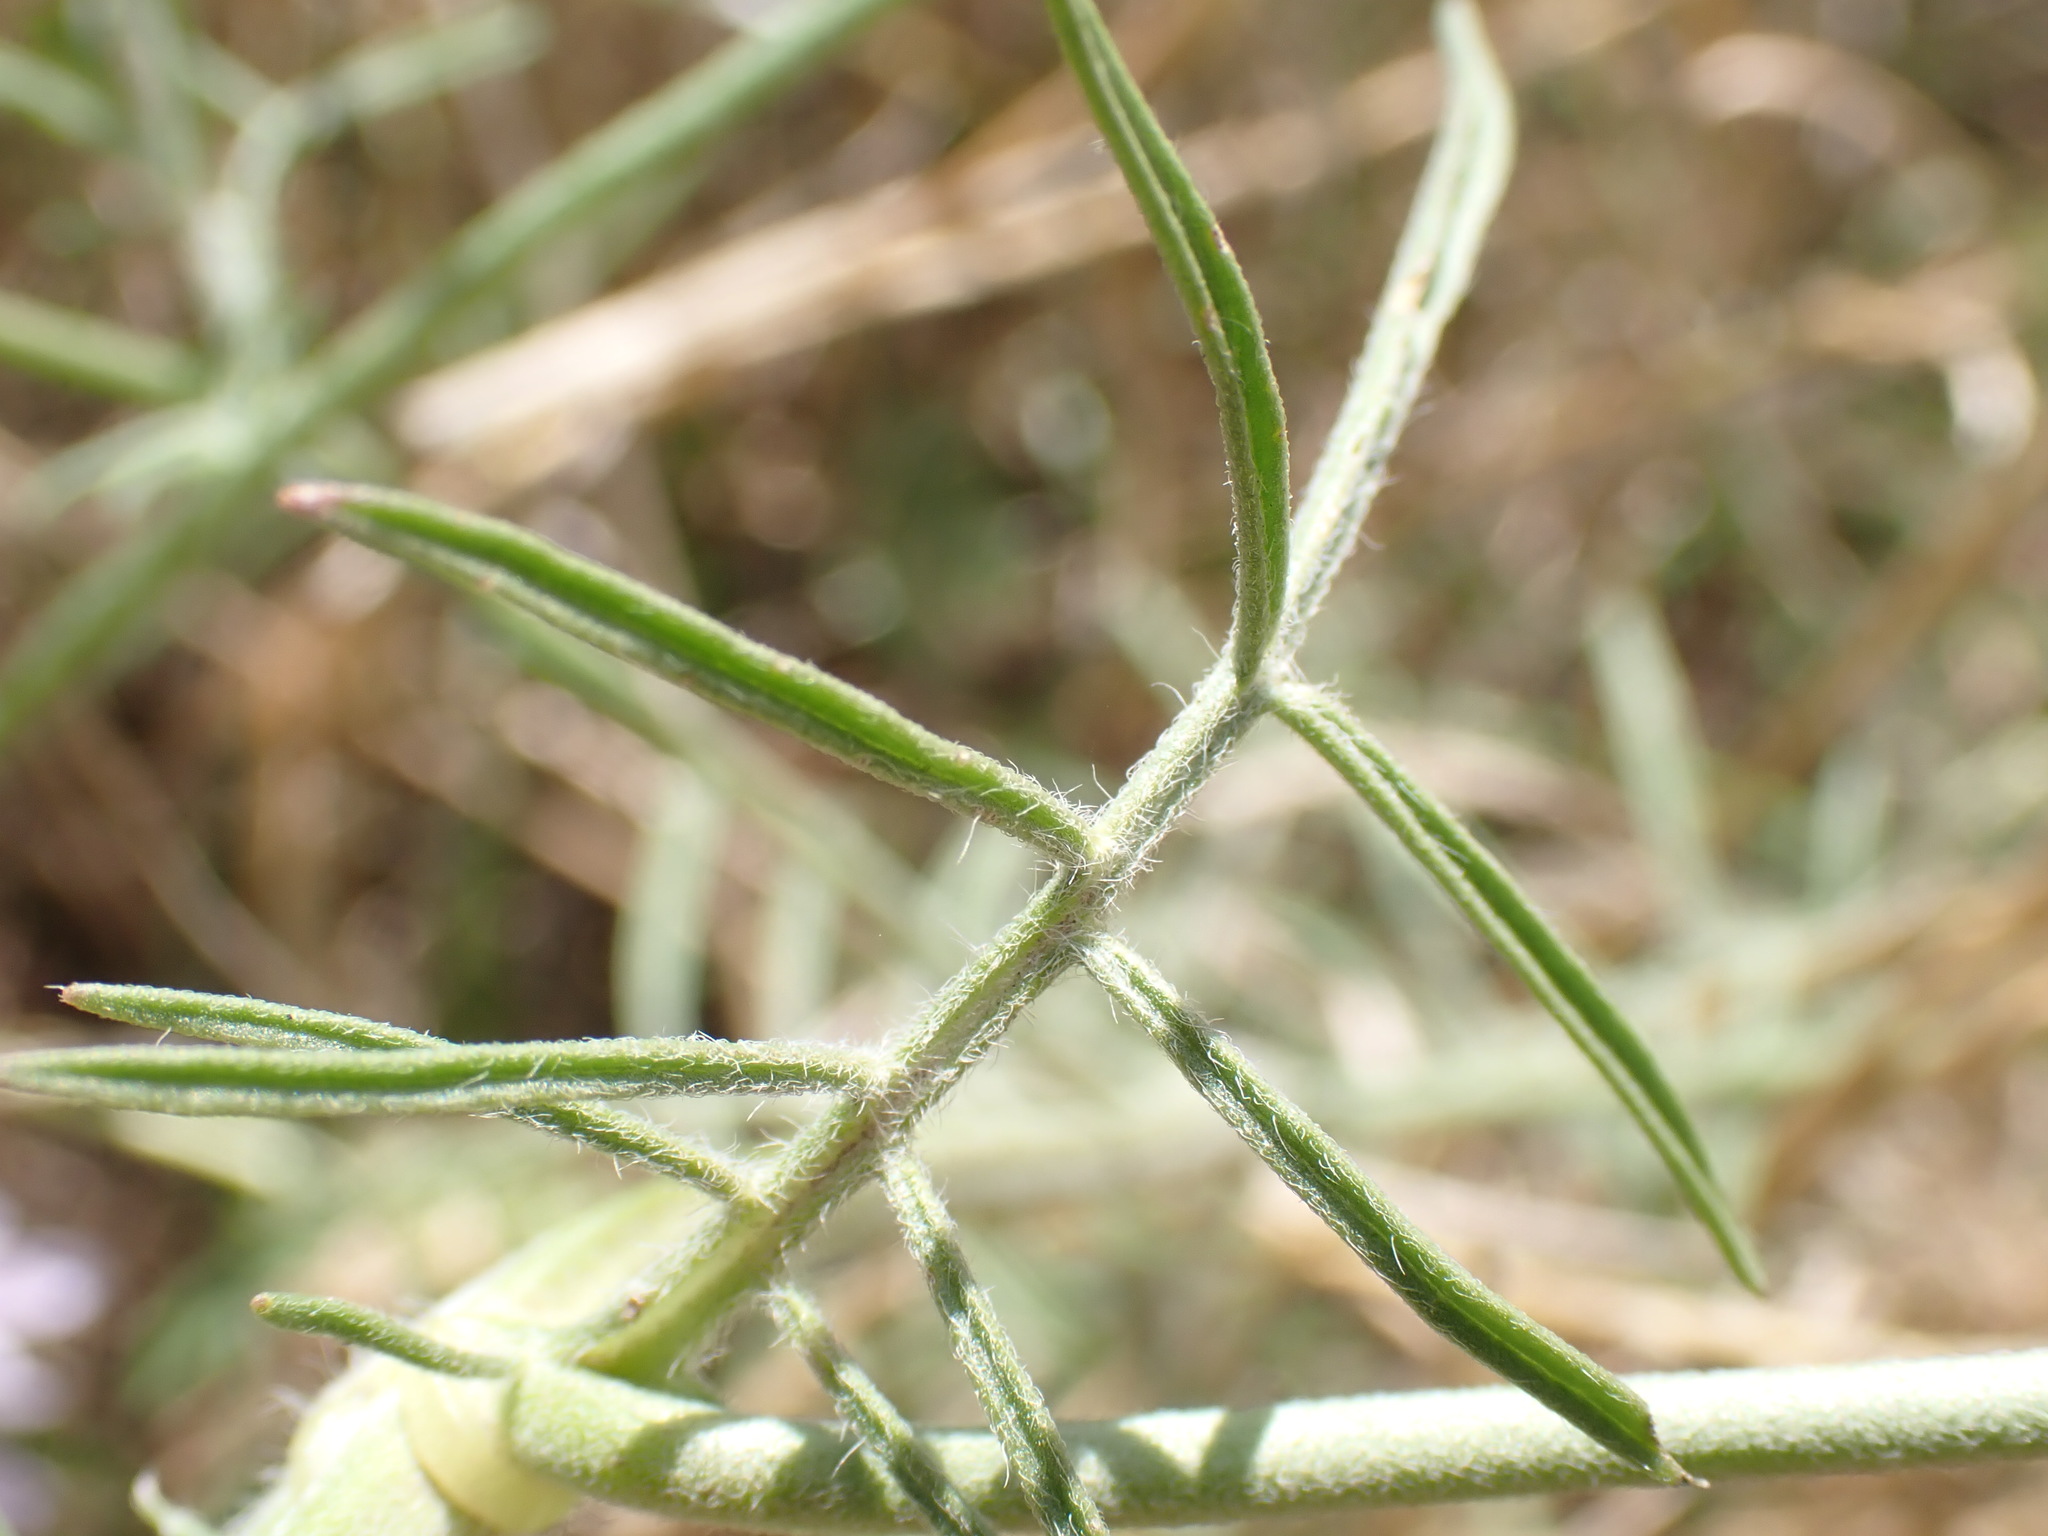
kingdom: Plantae
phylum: Tracheophyta
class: Magnoliopsida
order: Dipsacales
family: Caprifoliaceae
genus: Scabiosa
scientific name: Scabiosa columbaria
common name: Small scabious
